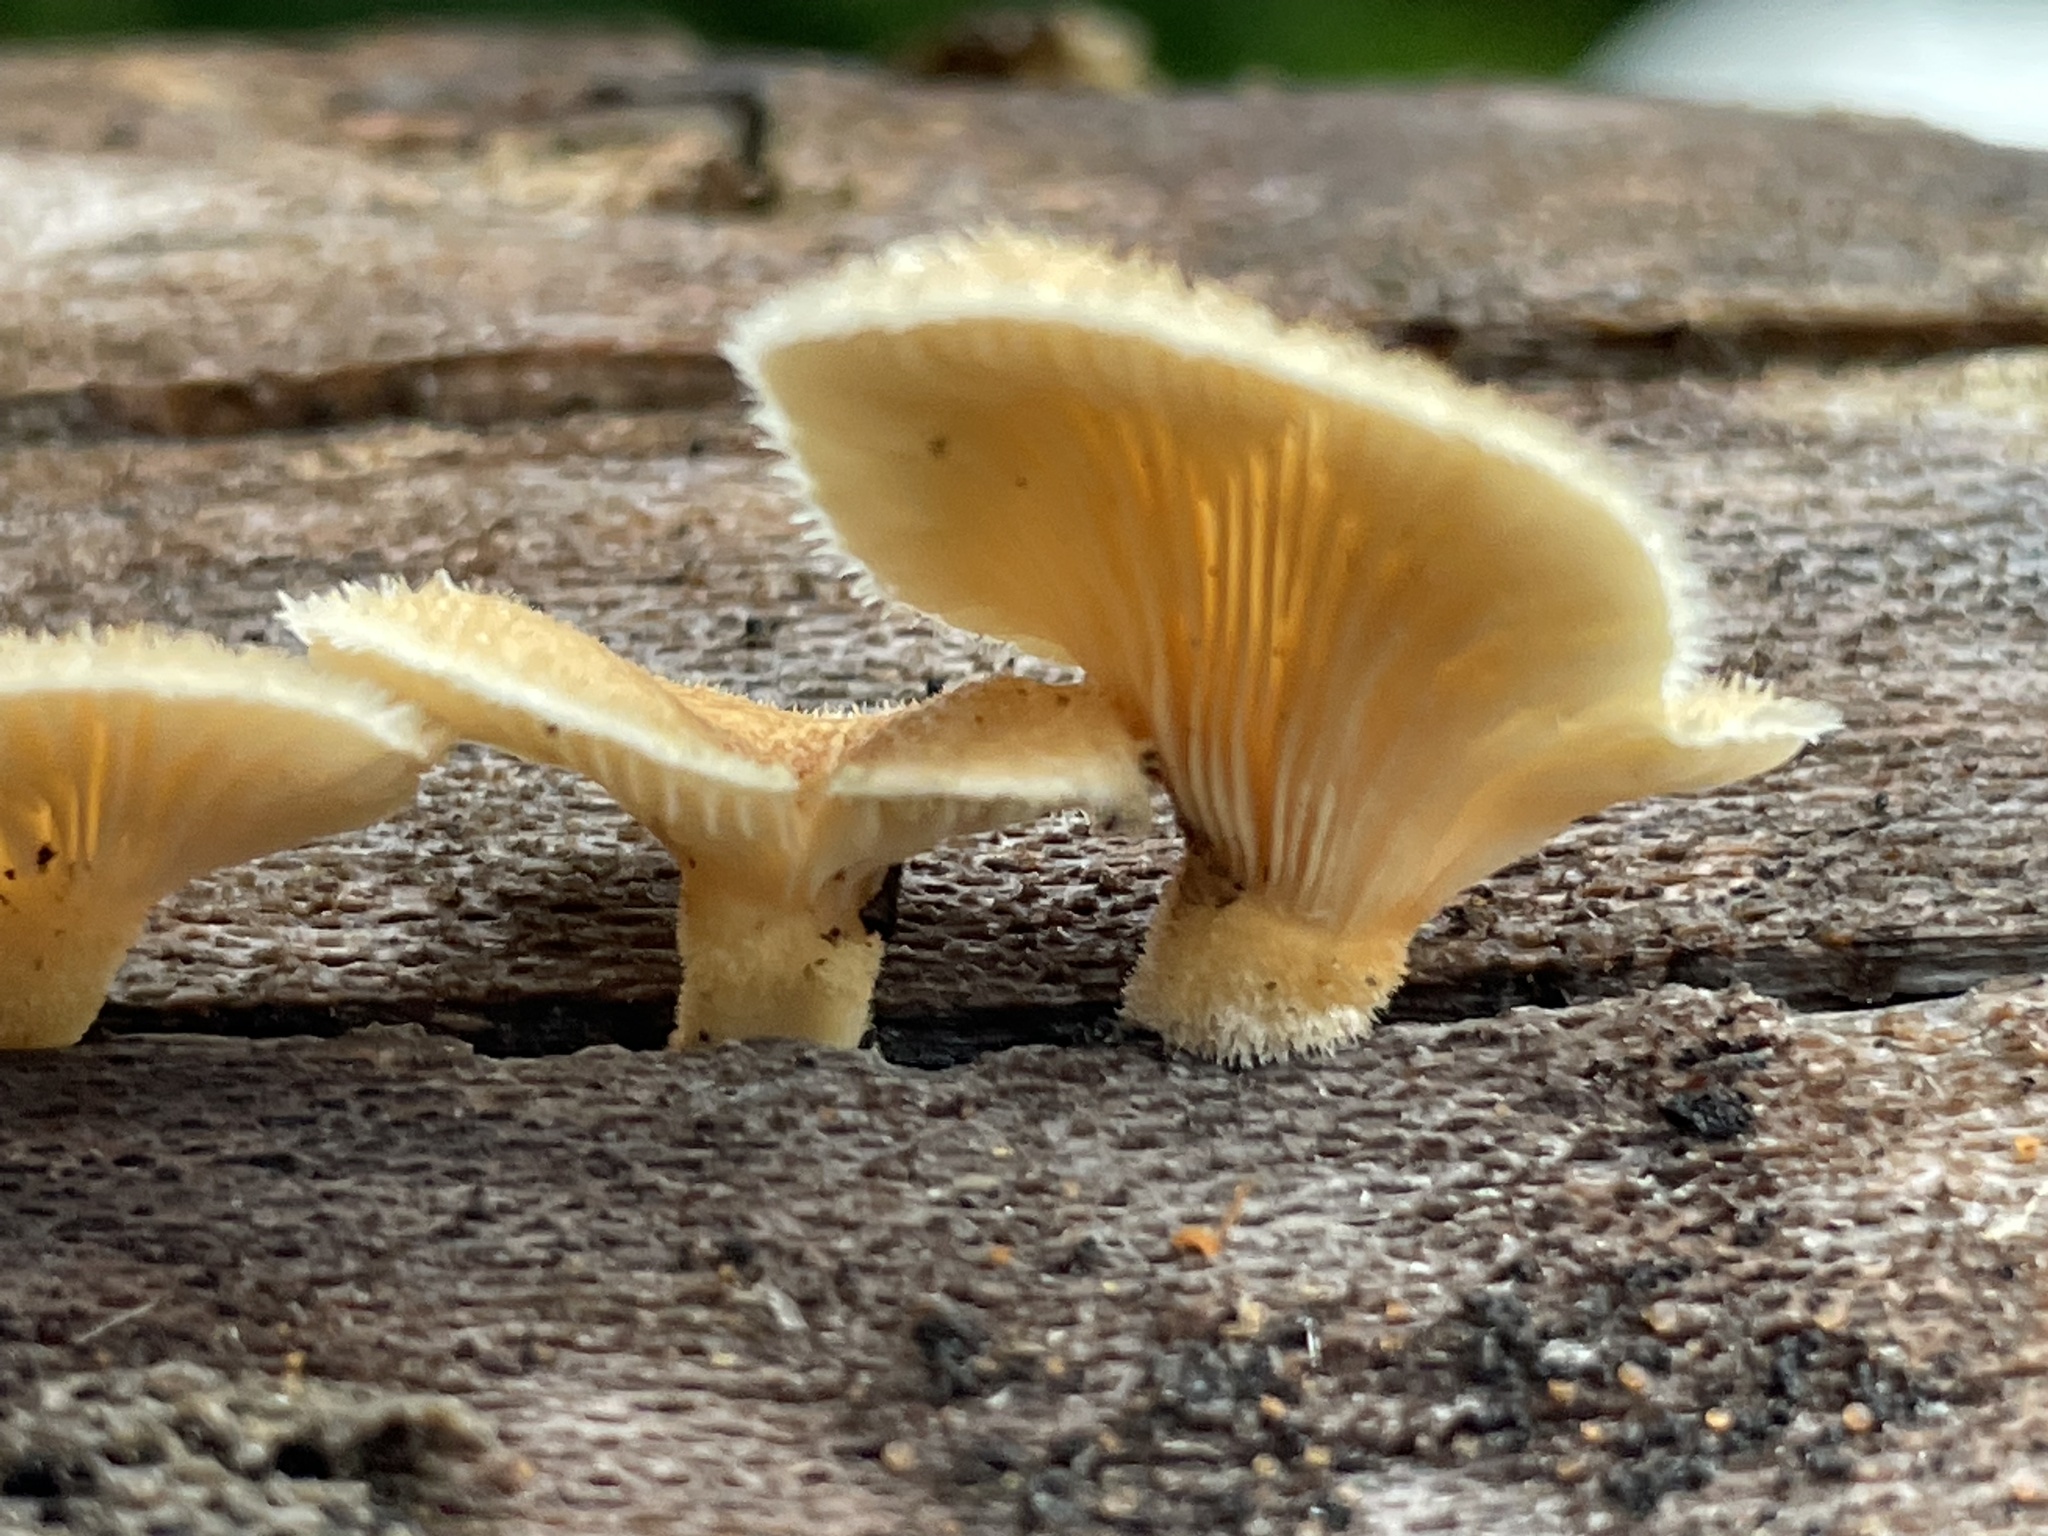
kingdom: Fungi
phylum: Basidiomycota
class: Agaricomycetes
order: Polyporales
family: Panaceae
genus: Panus
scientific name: Panus neostrigosus
